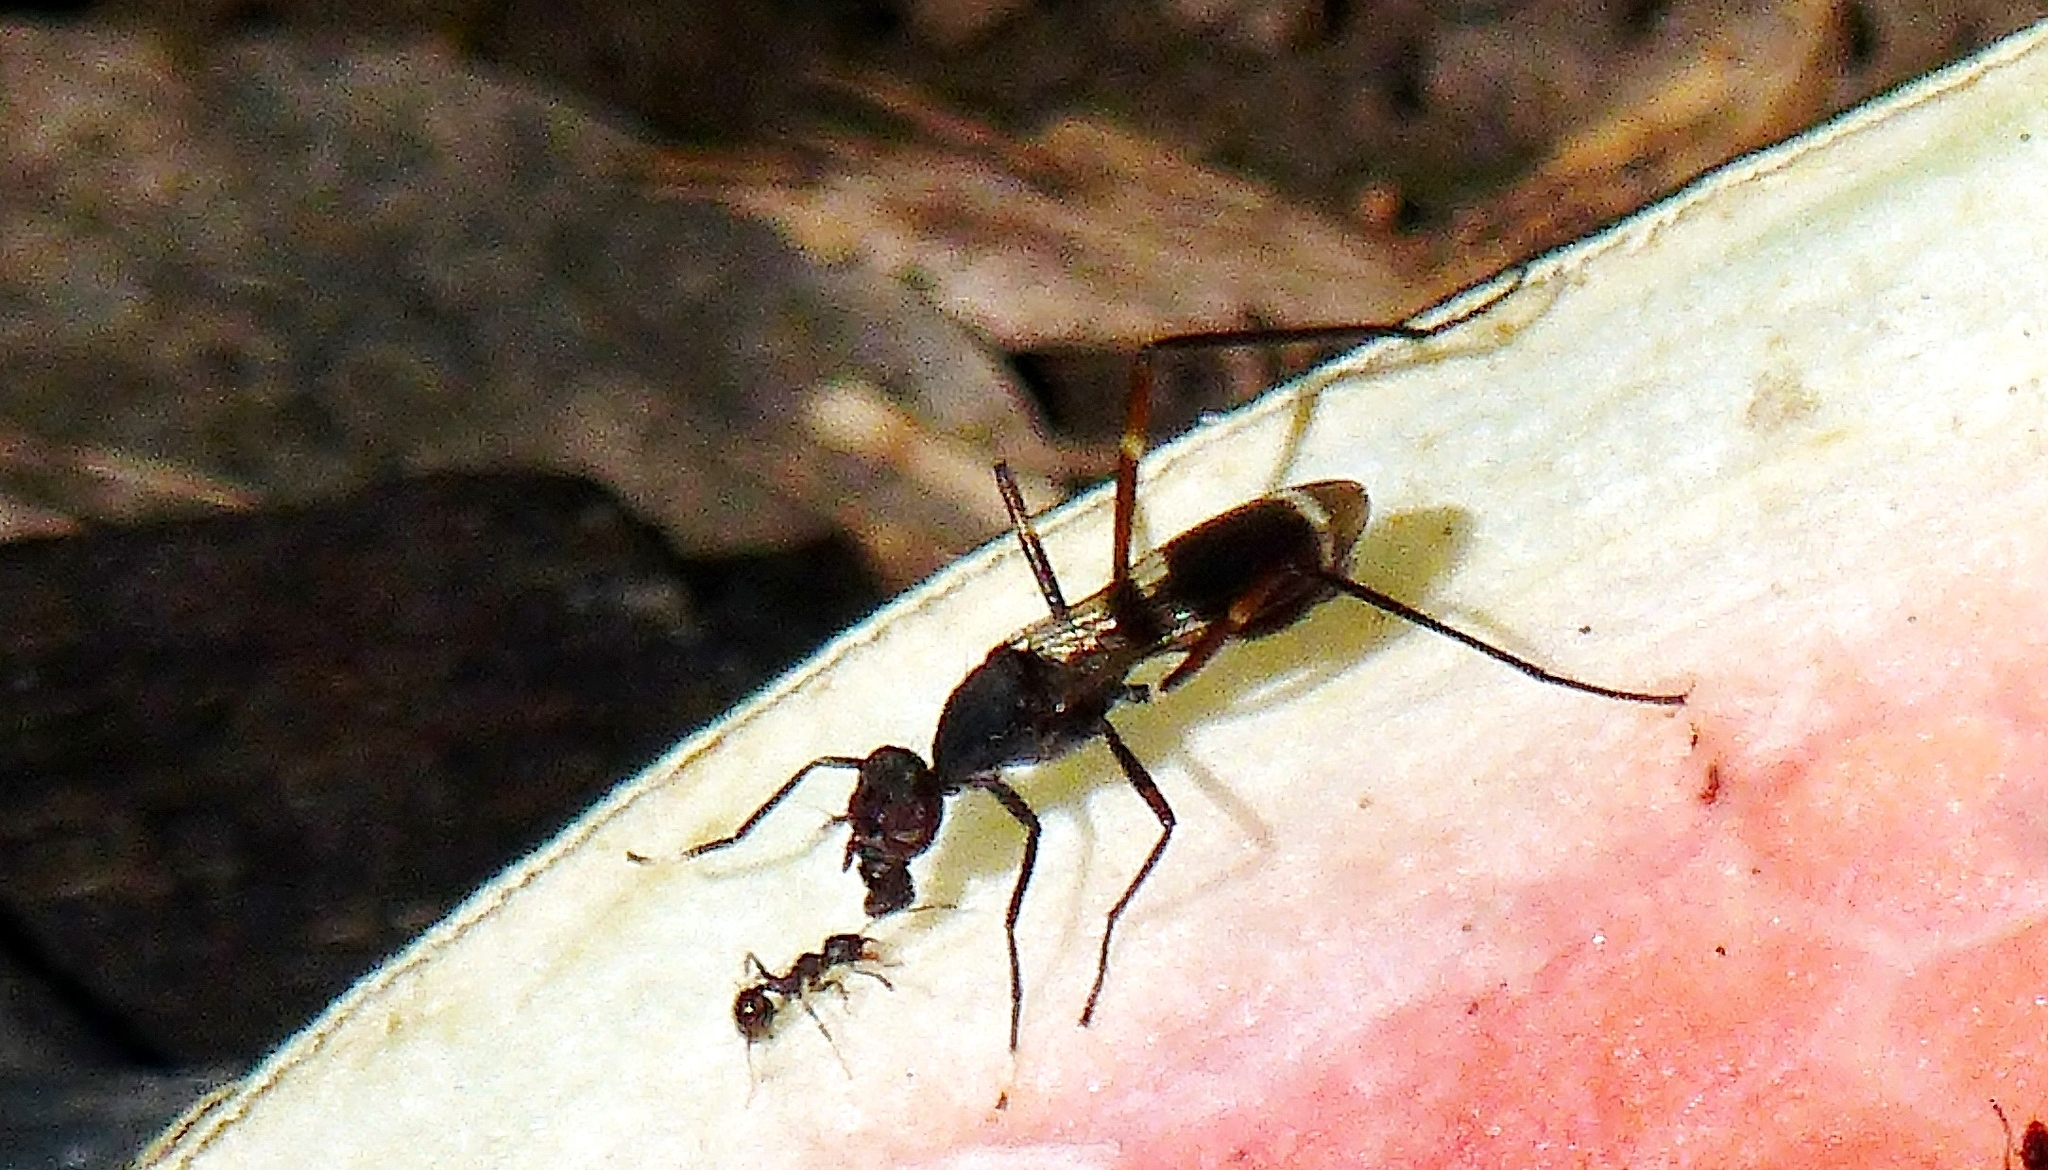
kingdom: Animalia
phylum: Arthropoda
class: Insecta
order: Diptera
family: Micropezidae
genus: Taeniaptera
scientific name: Taeniaptera trivittata
